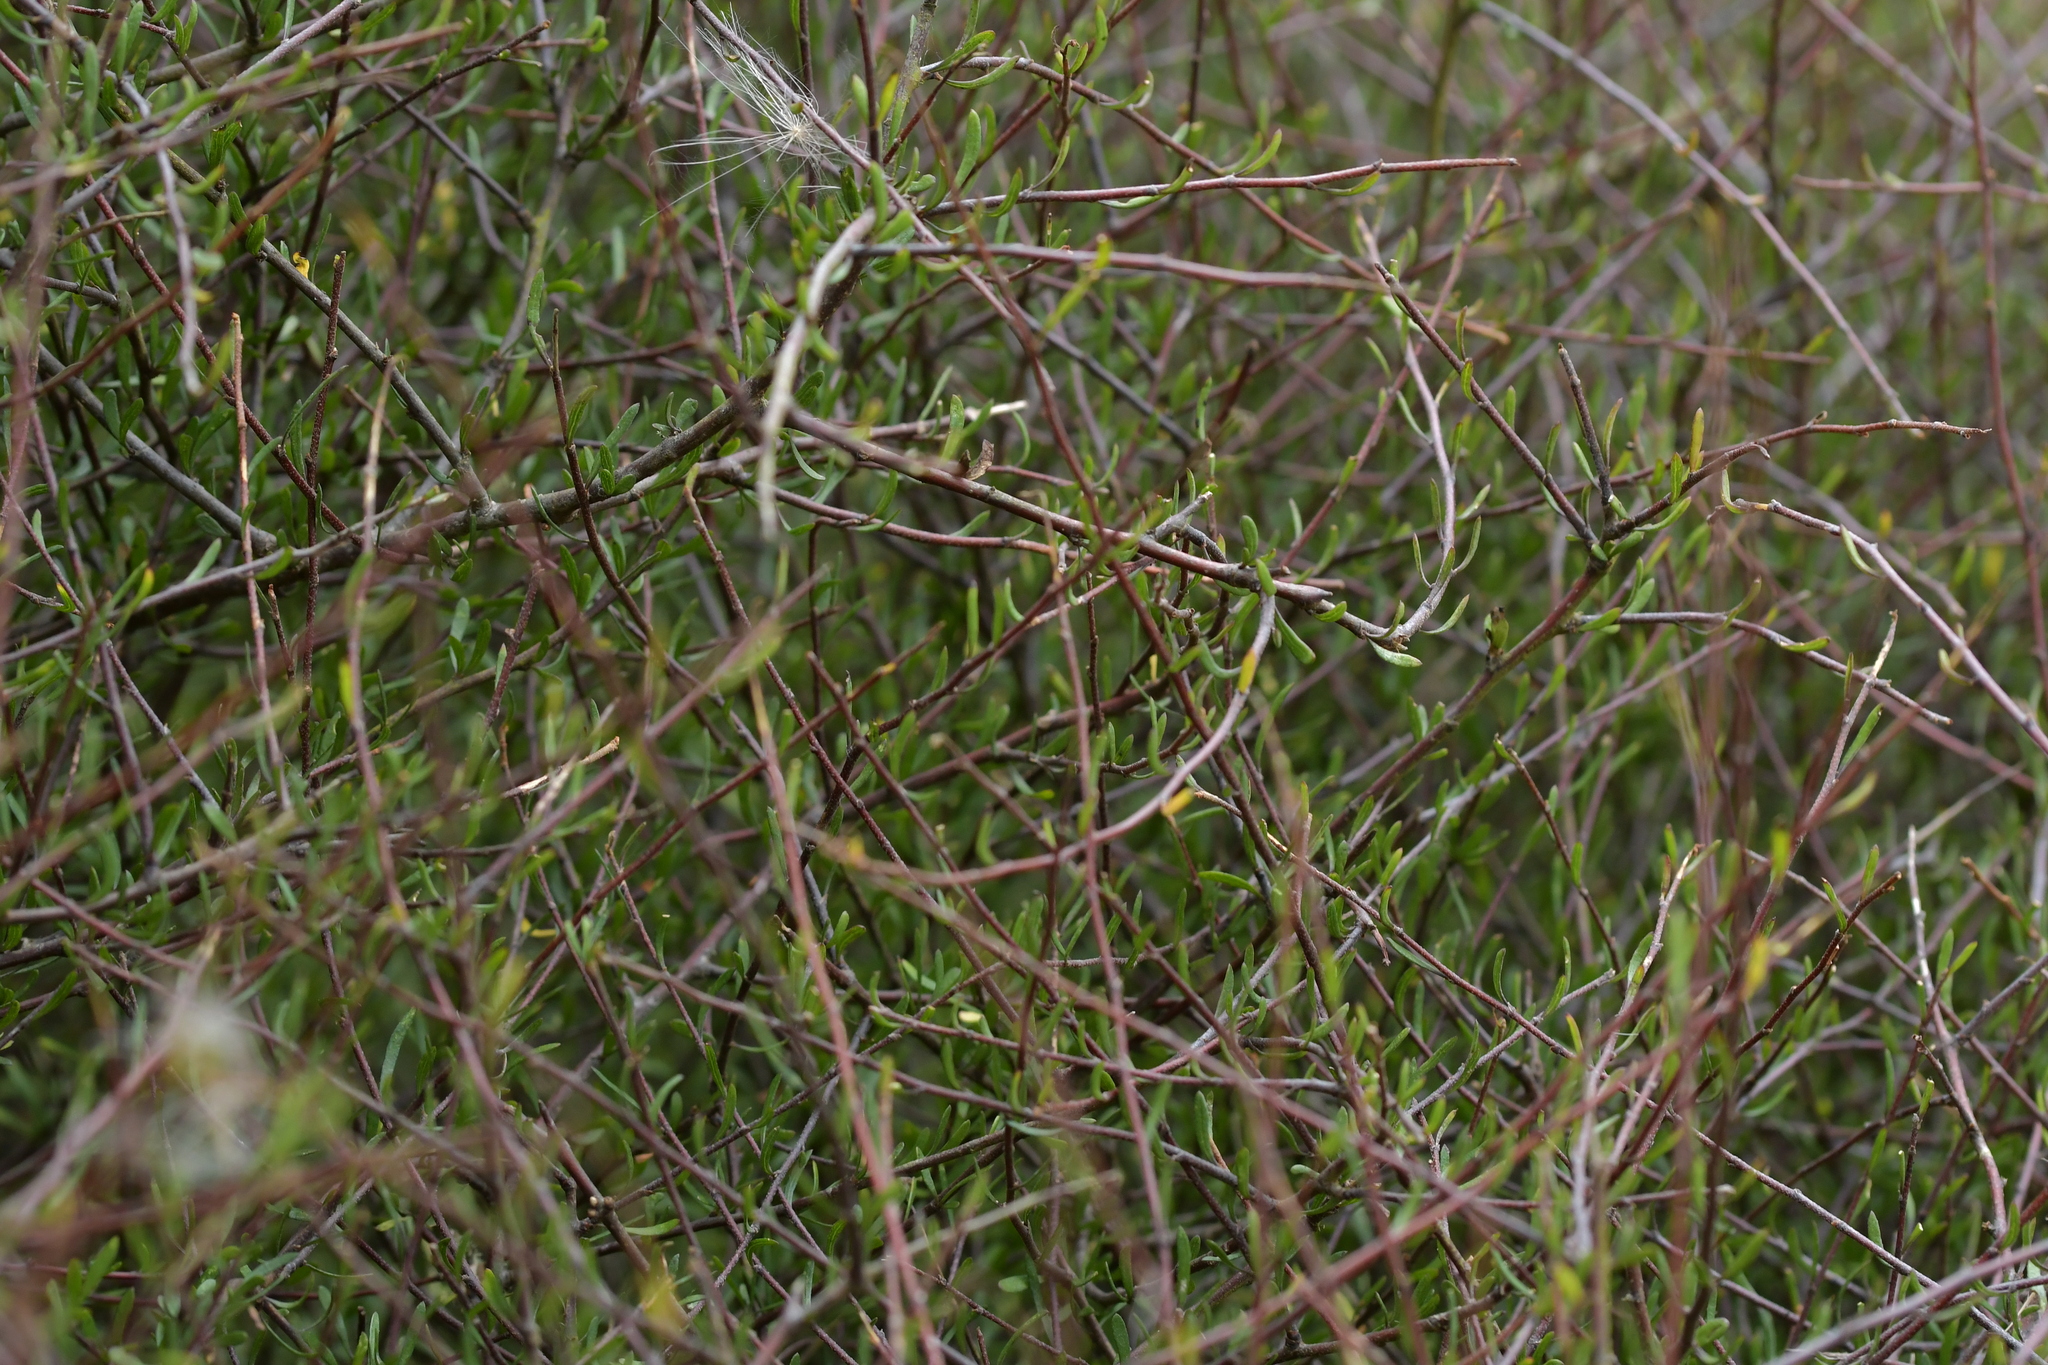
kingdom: Plantae
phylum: Tracheophyta
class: Magnoliopsida
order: Malvales
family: Malvaceae
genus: Plagianthus
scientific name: Plagianthus divaricatus
